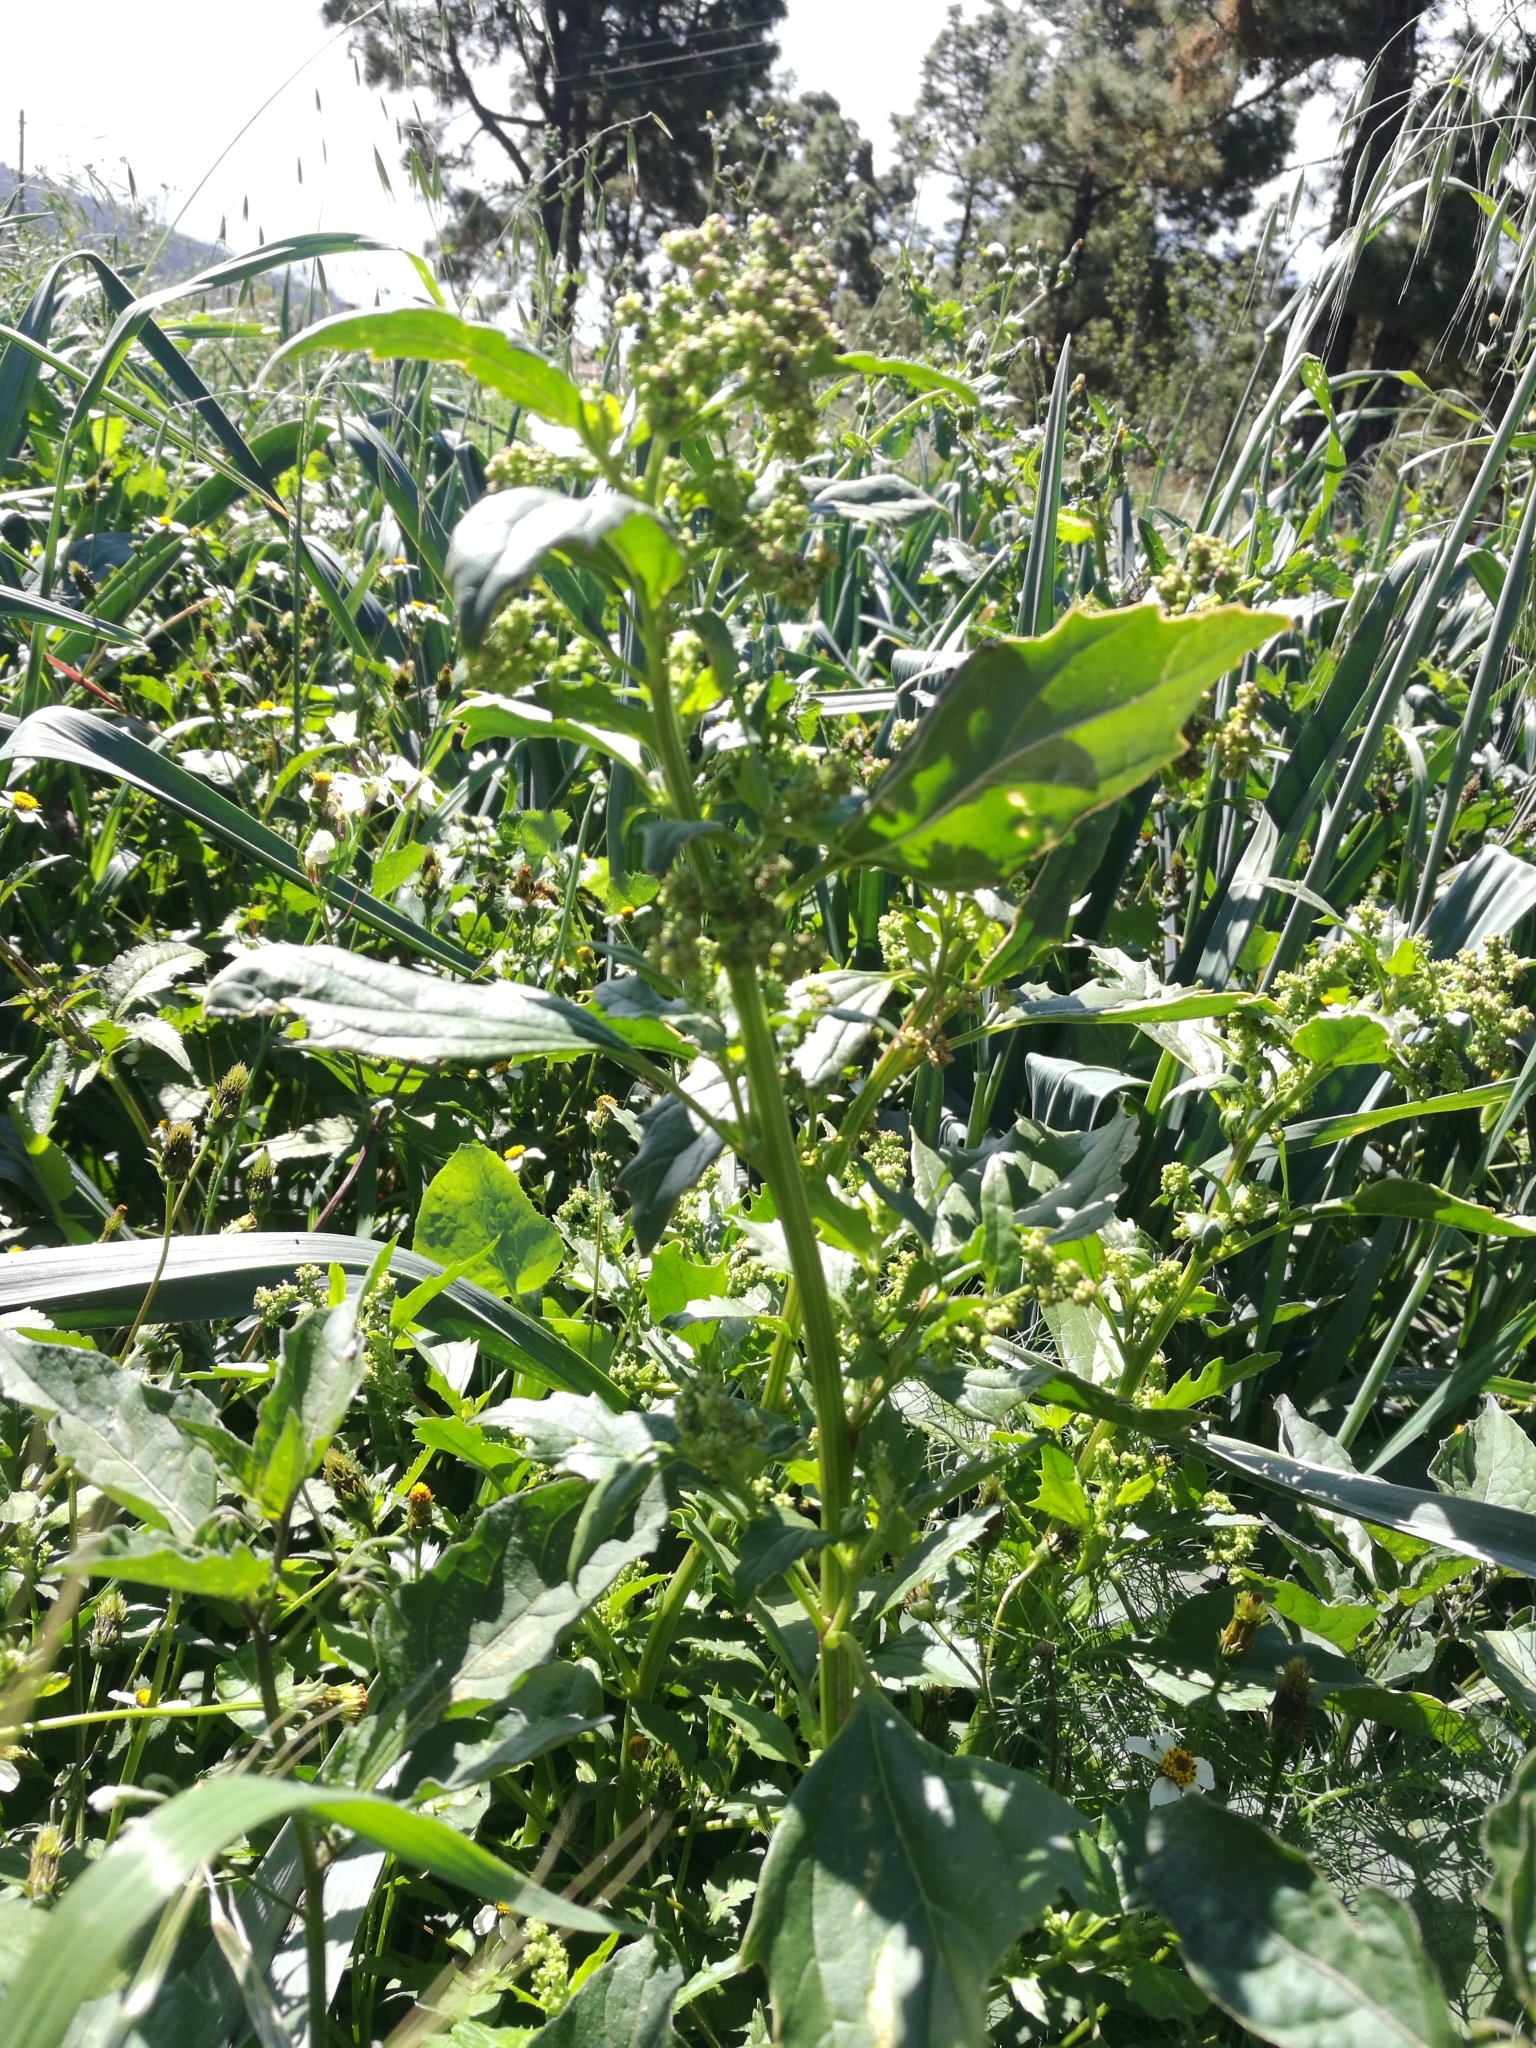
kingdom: Plantae
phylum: Tracheophyta
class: Magnoliopsida
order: Caryophyllales
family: Amaranthaceae
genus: Chenopodiastrum
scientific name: Chenopodiastrum murale
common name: Sowbane
